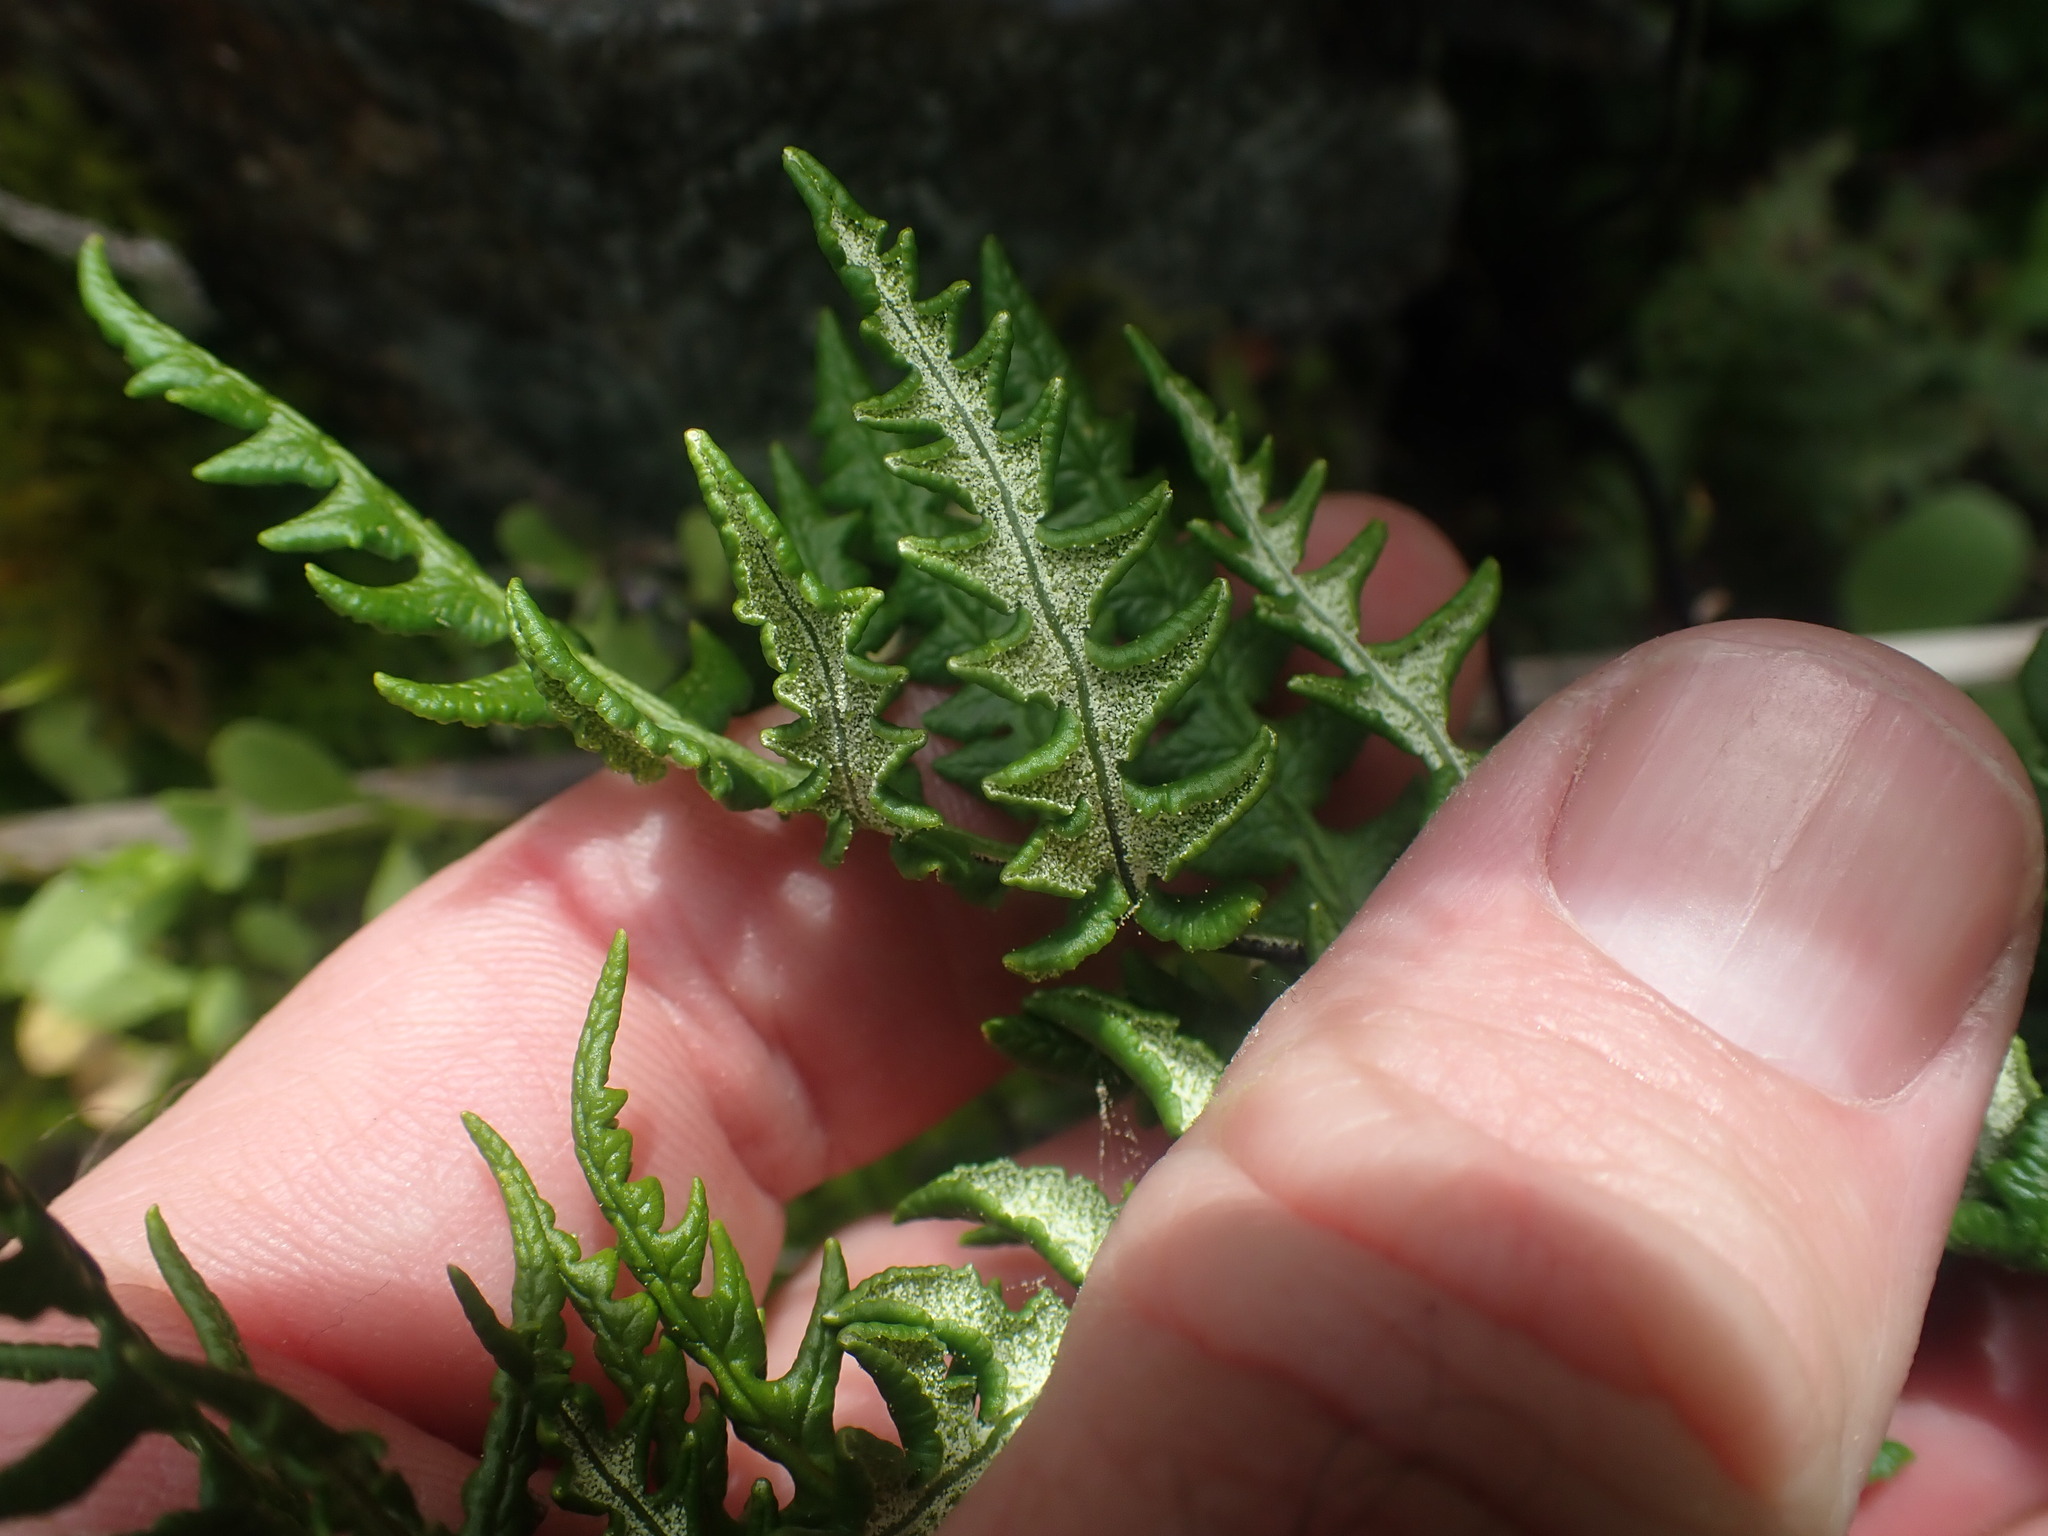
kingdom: Plantae
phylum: Tracheophyta
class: Polypodiopsida
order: Polypodiales
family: Pteridaceae
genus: Pentagramma
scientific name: Pentagramma triangularis
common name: Gold fern
